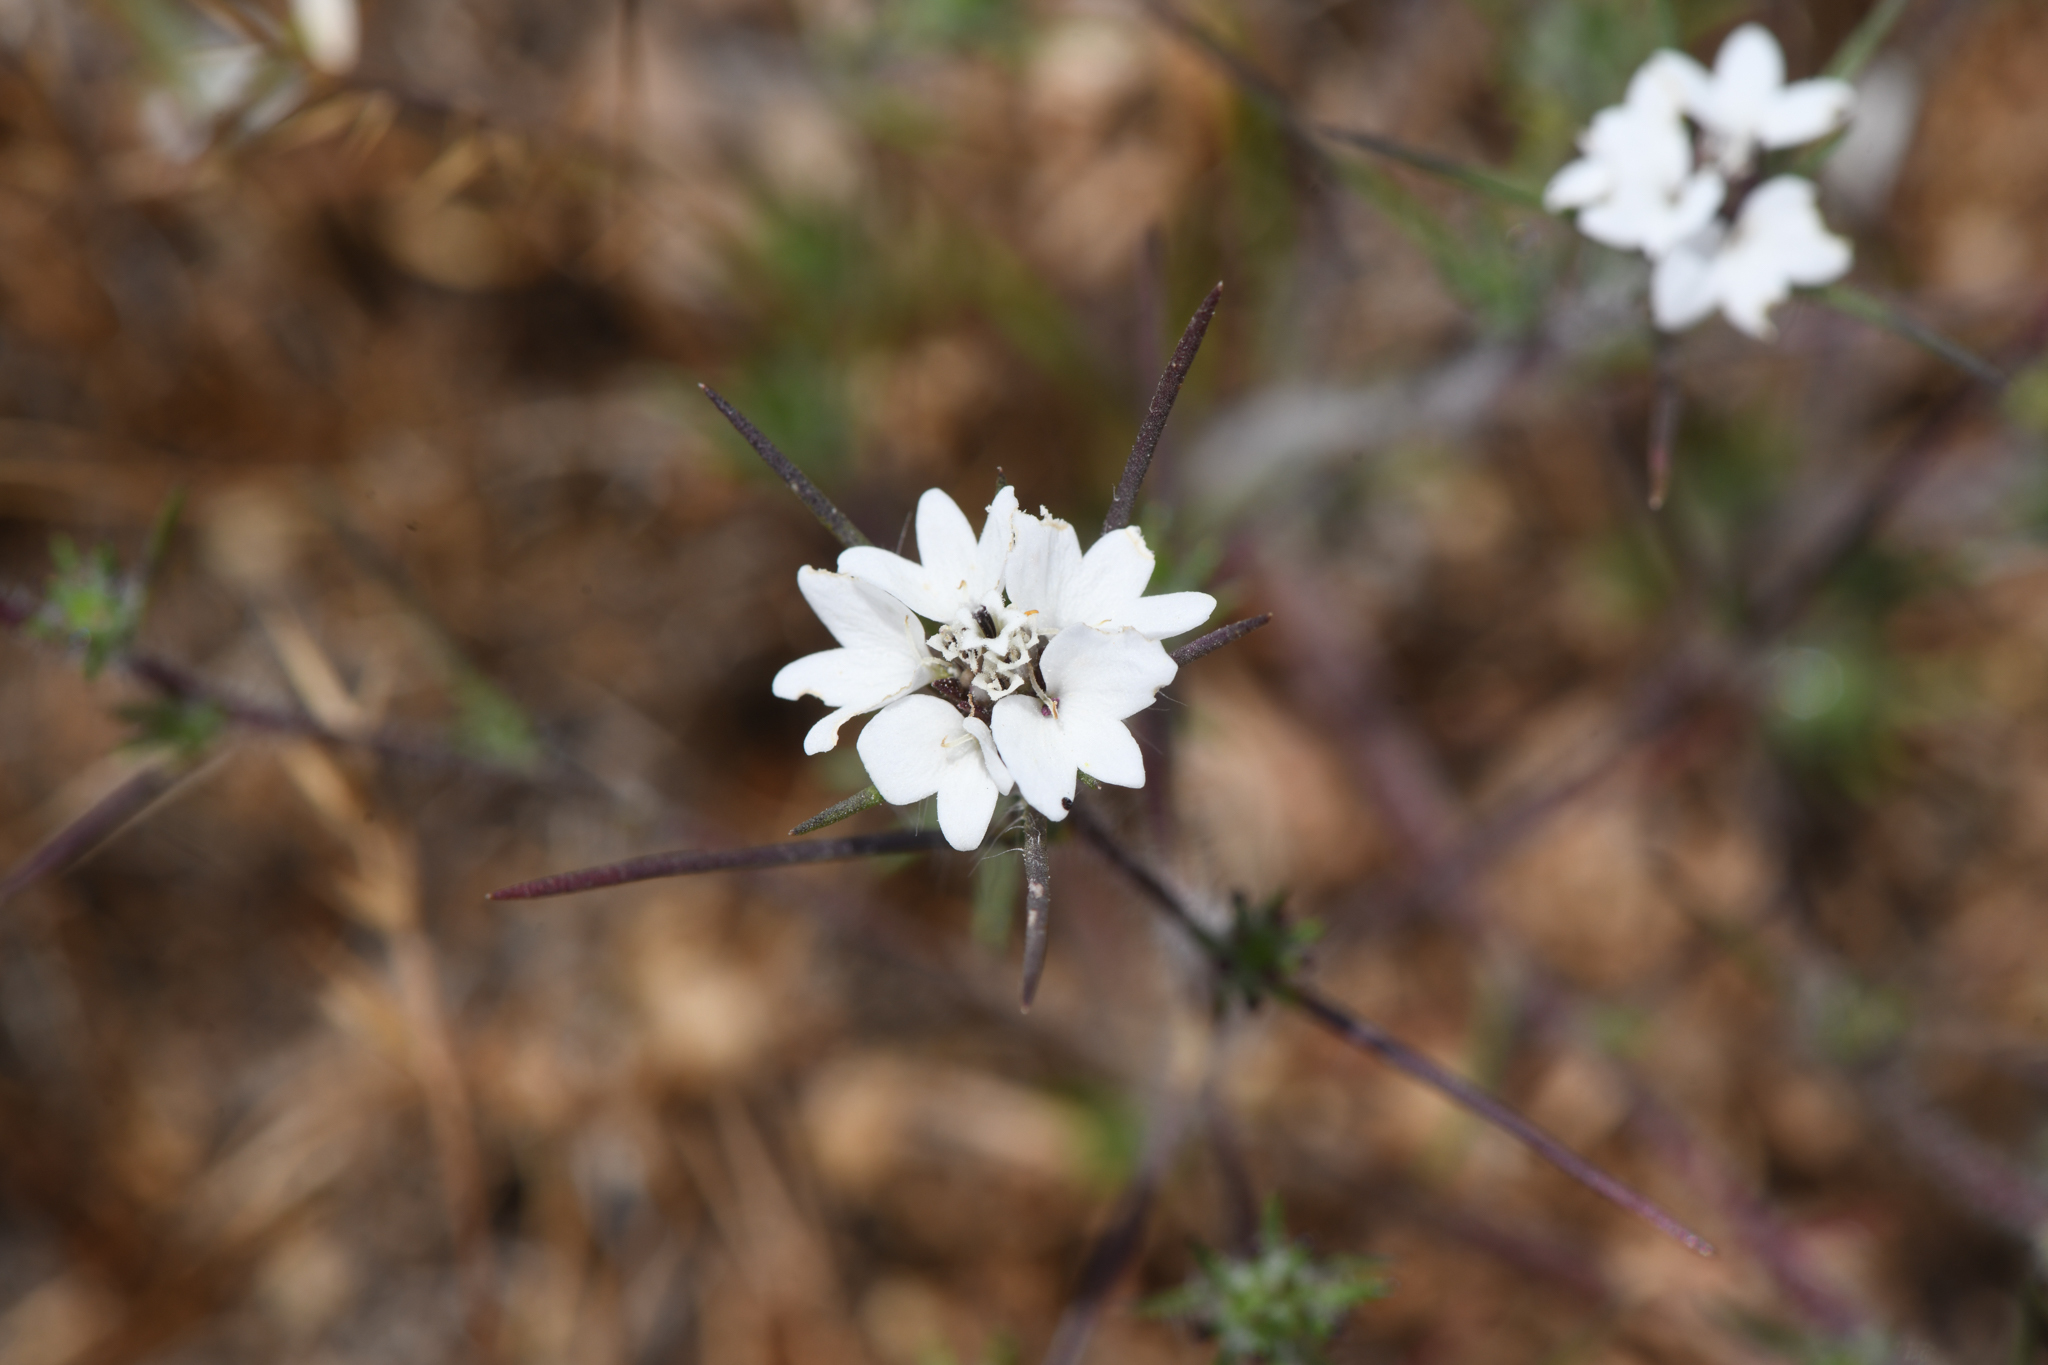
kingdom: Plantae
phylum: Tracheophyta
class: Magnoliopsida
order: Asterales
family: Asteraceae
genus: Calycadenia
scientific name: Calycadenia villosa
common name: Dwarf calycadenia
